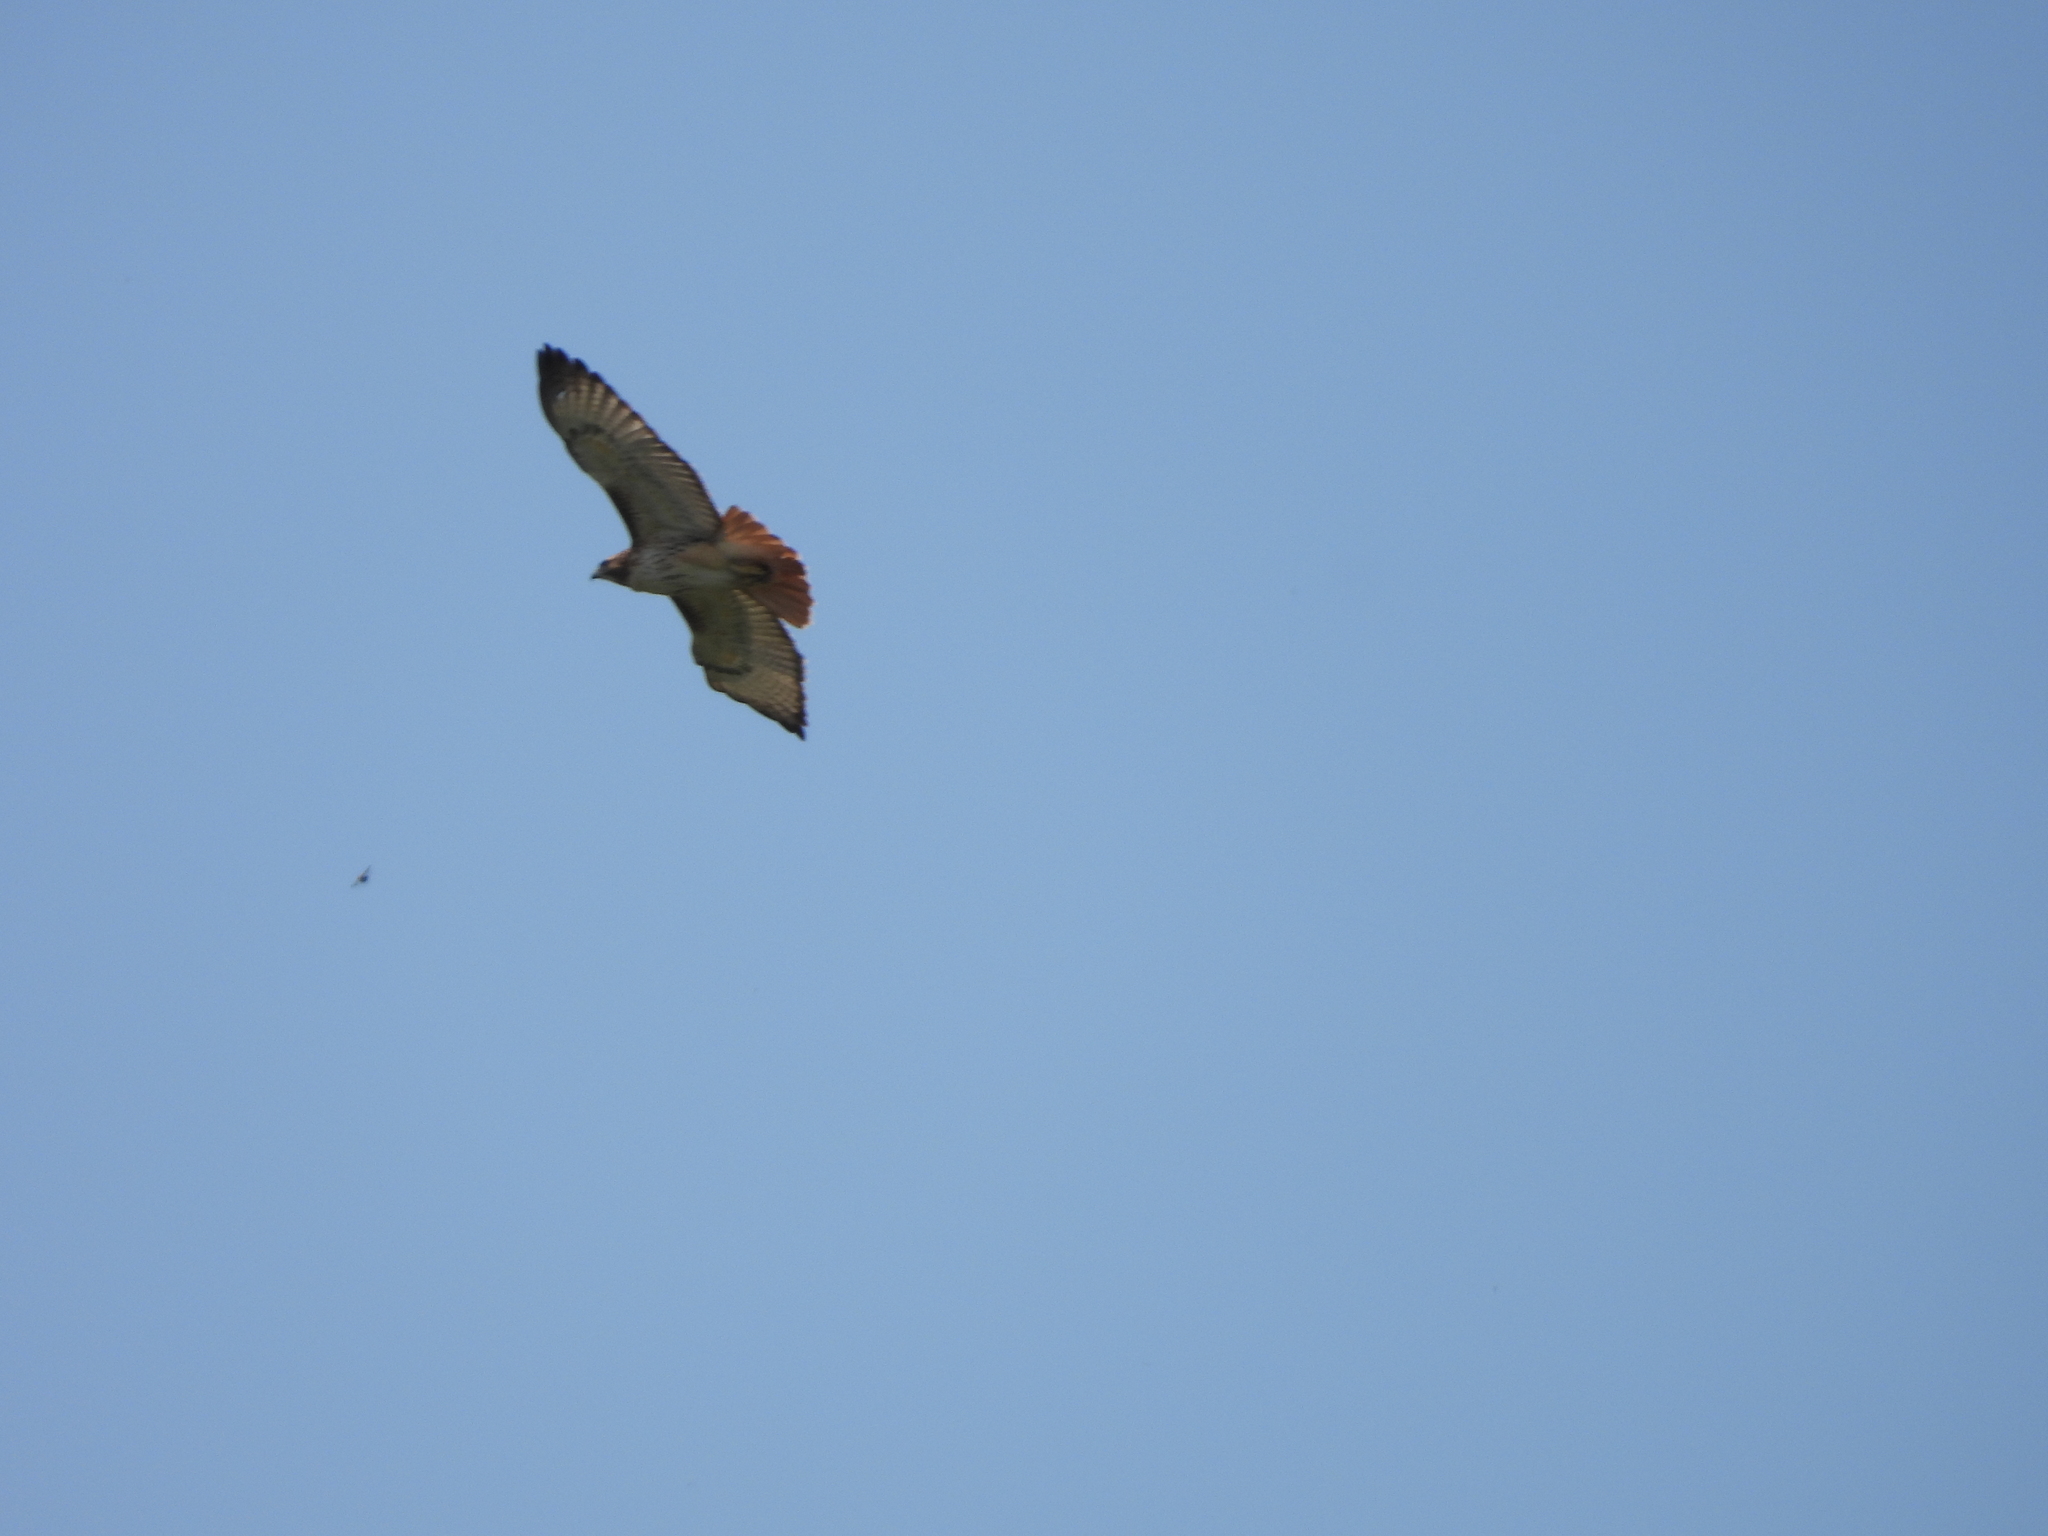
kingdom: Animalia
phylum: Chordata
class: Aves
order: Accipitriformes
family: Accipitridae
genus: Buteo
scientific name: Buteo jamaicensis
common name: Red-tailed hawk
